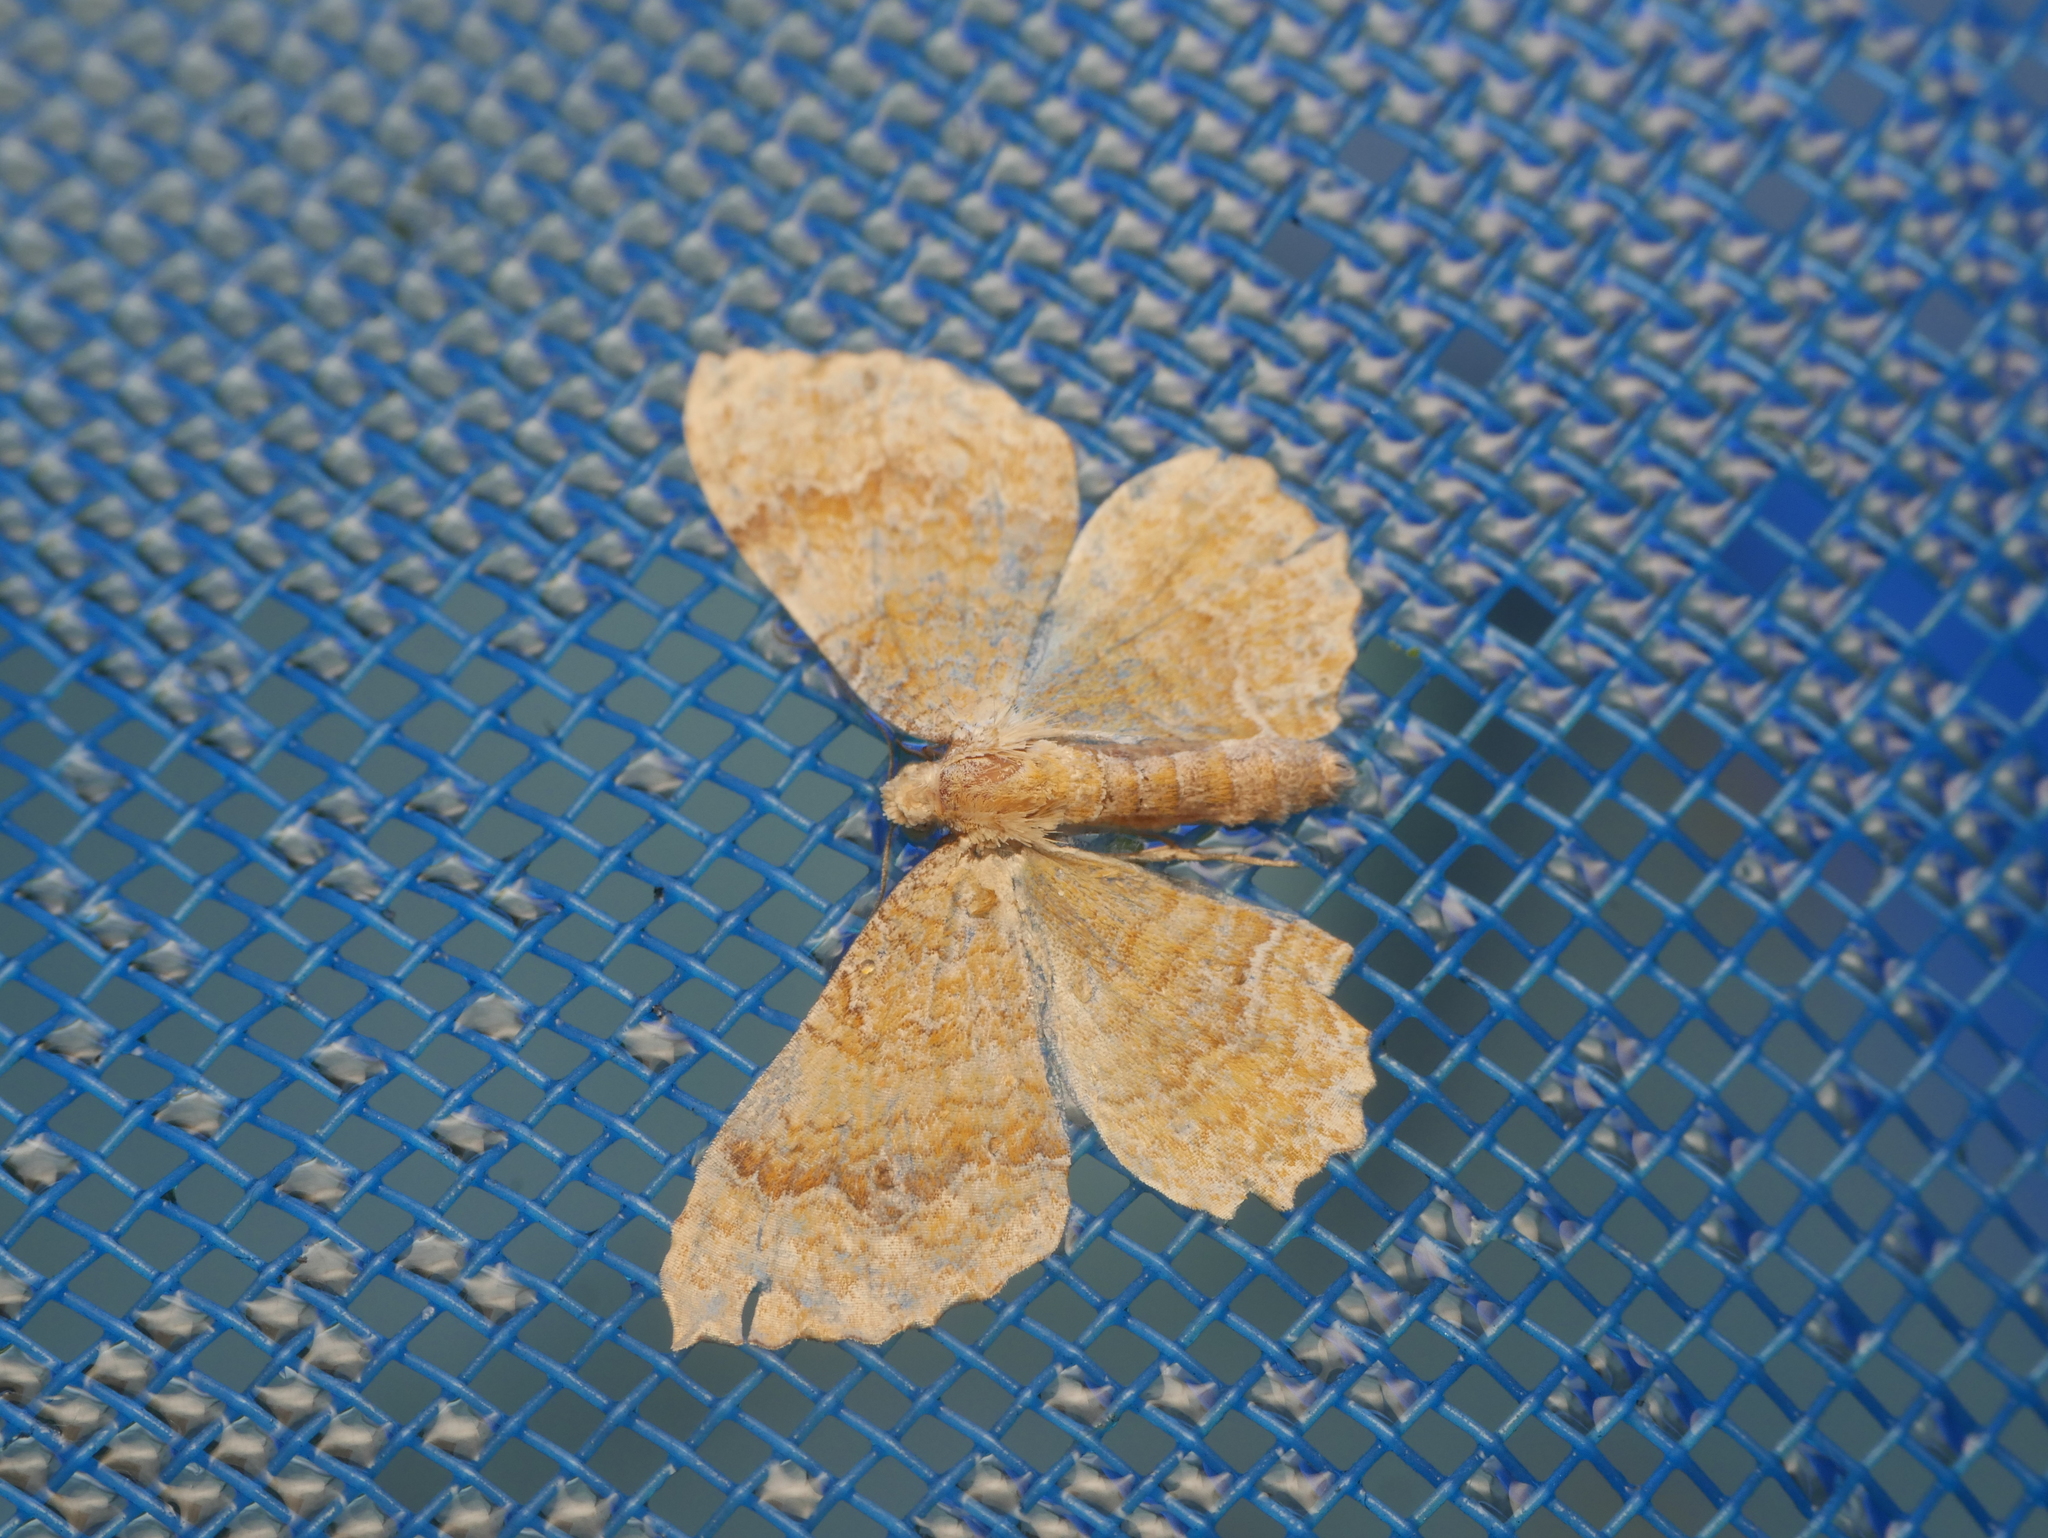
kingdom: Animalia
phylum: Arthropoda
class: Insecta
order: Lepidoptera
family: Geometridae
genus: Camptogramma
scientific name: Camptogramma bilineata
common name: Yellow shell
